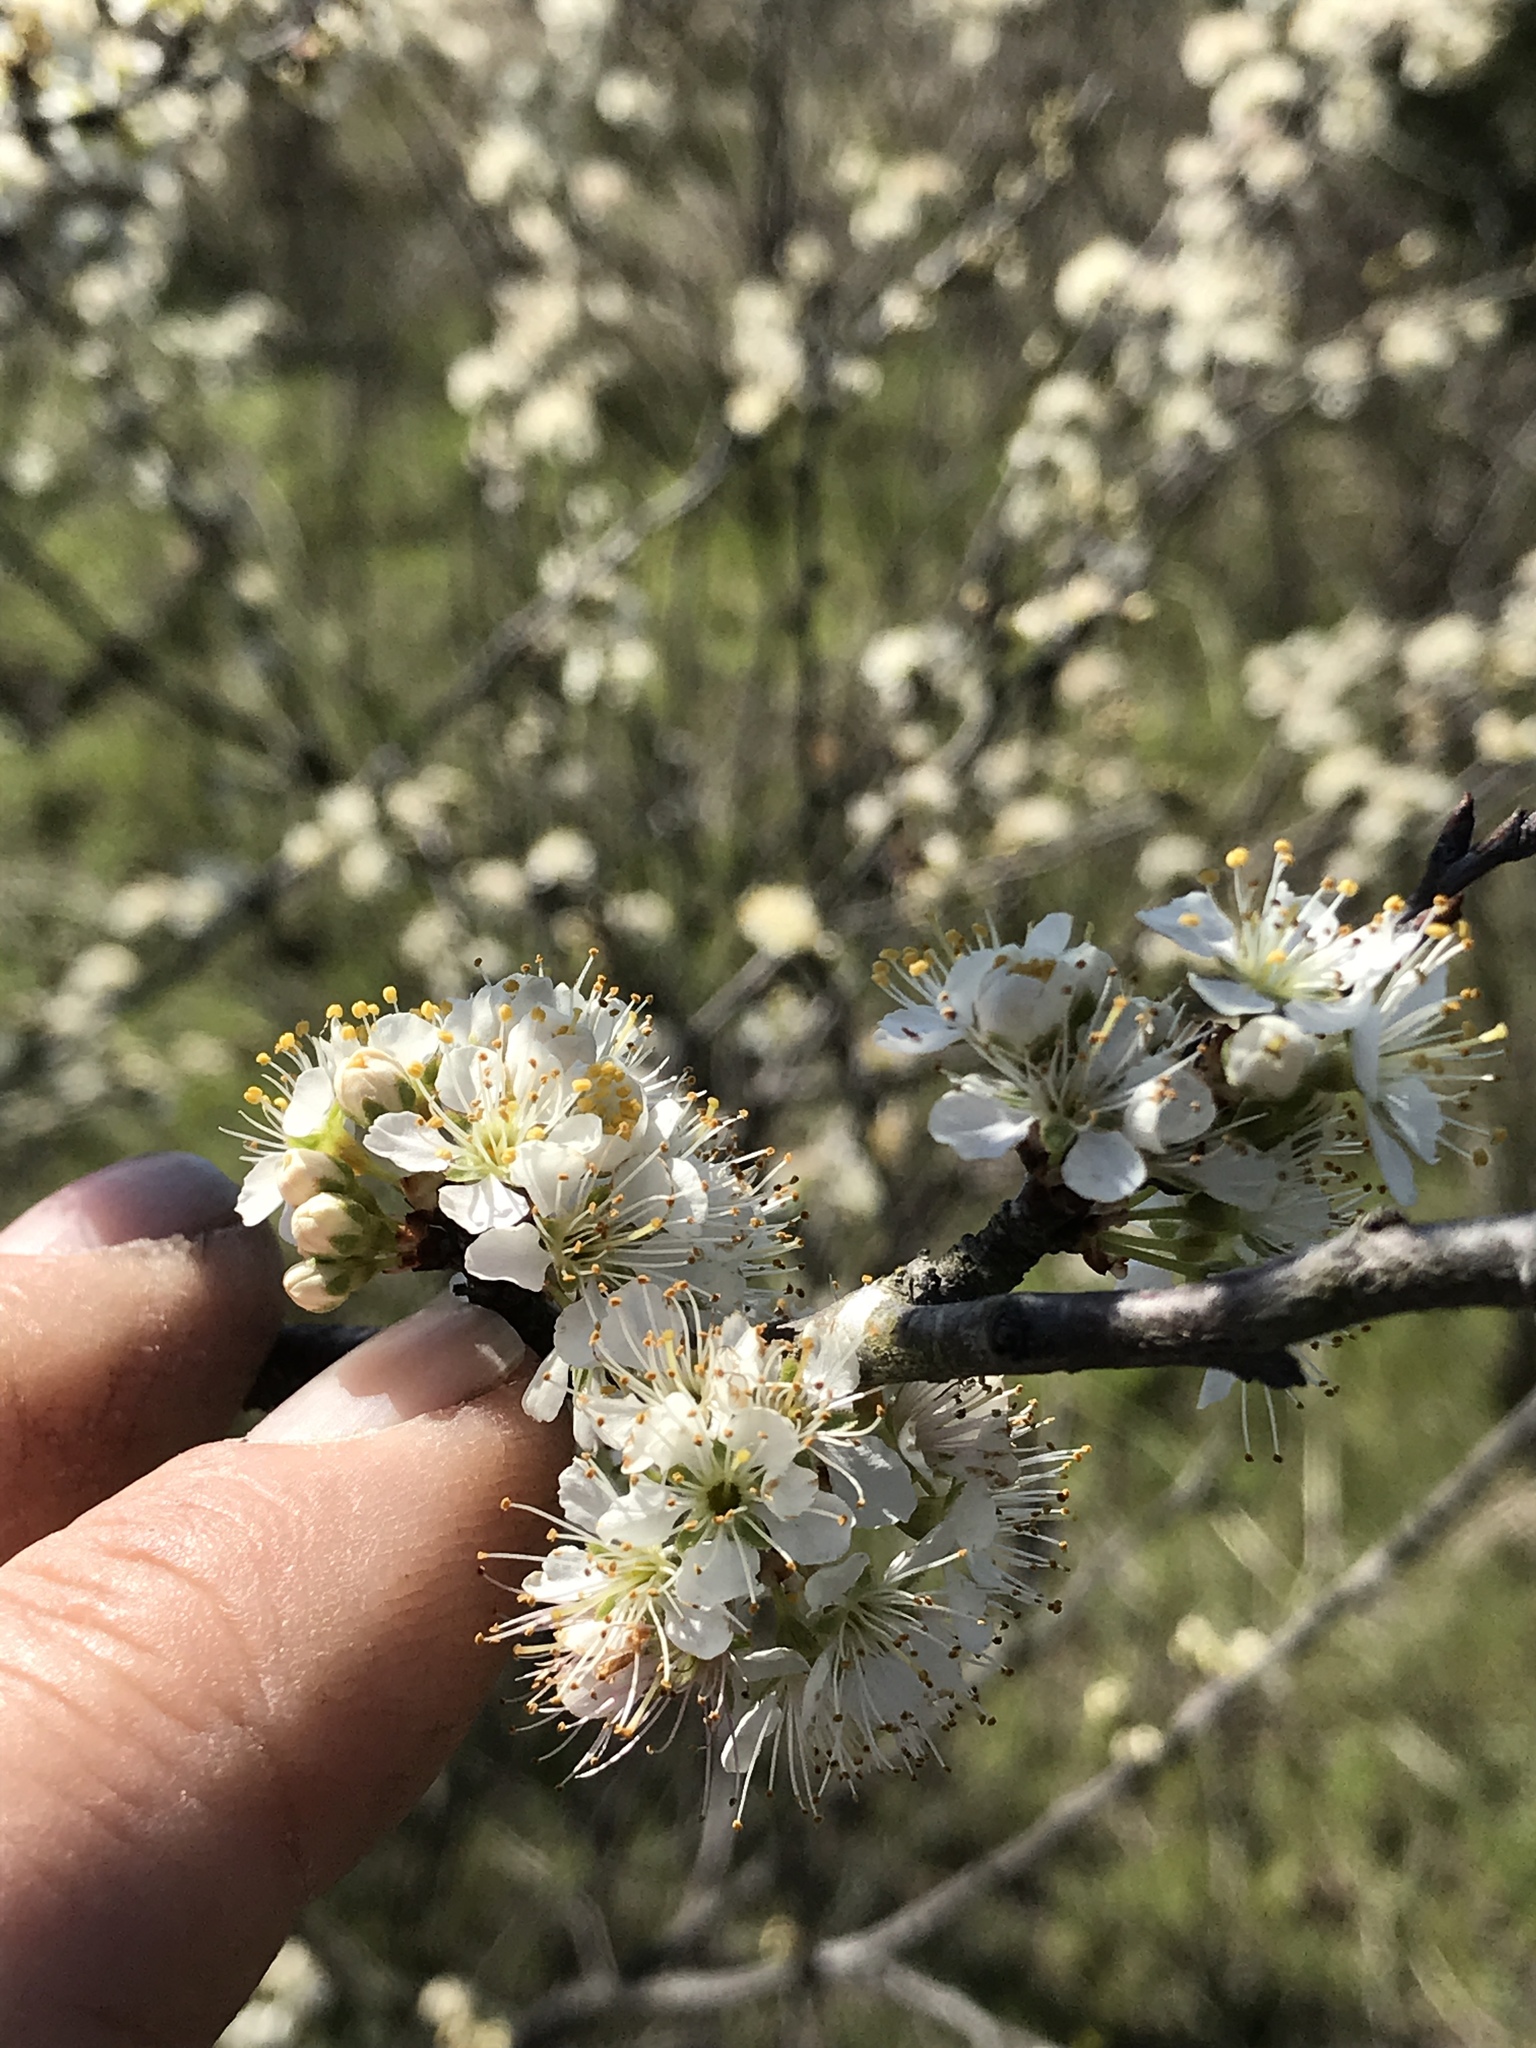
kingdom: Plantae
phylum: Tracheophyta
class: Magnoliopsida
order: Rosales
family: Rosaceae
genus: Prunus
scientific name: Prunus rivularis
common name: Creek plum
